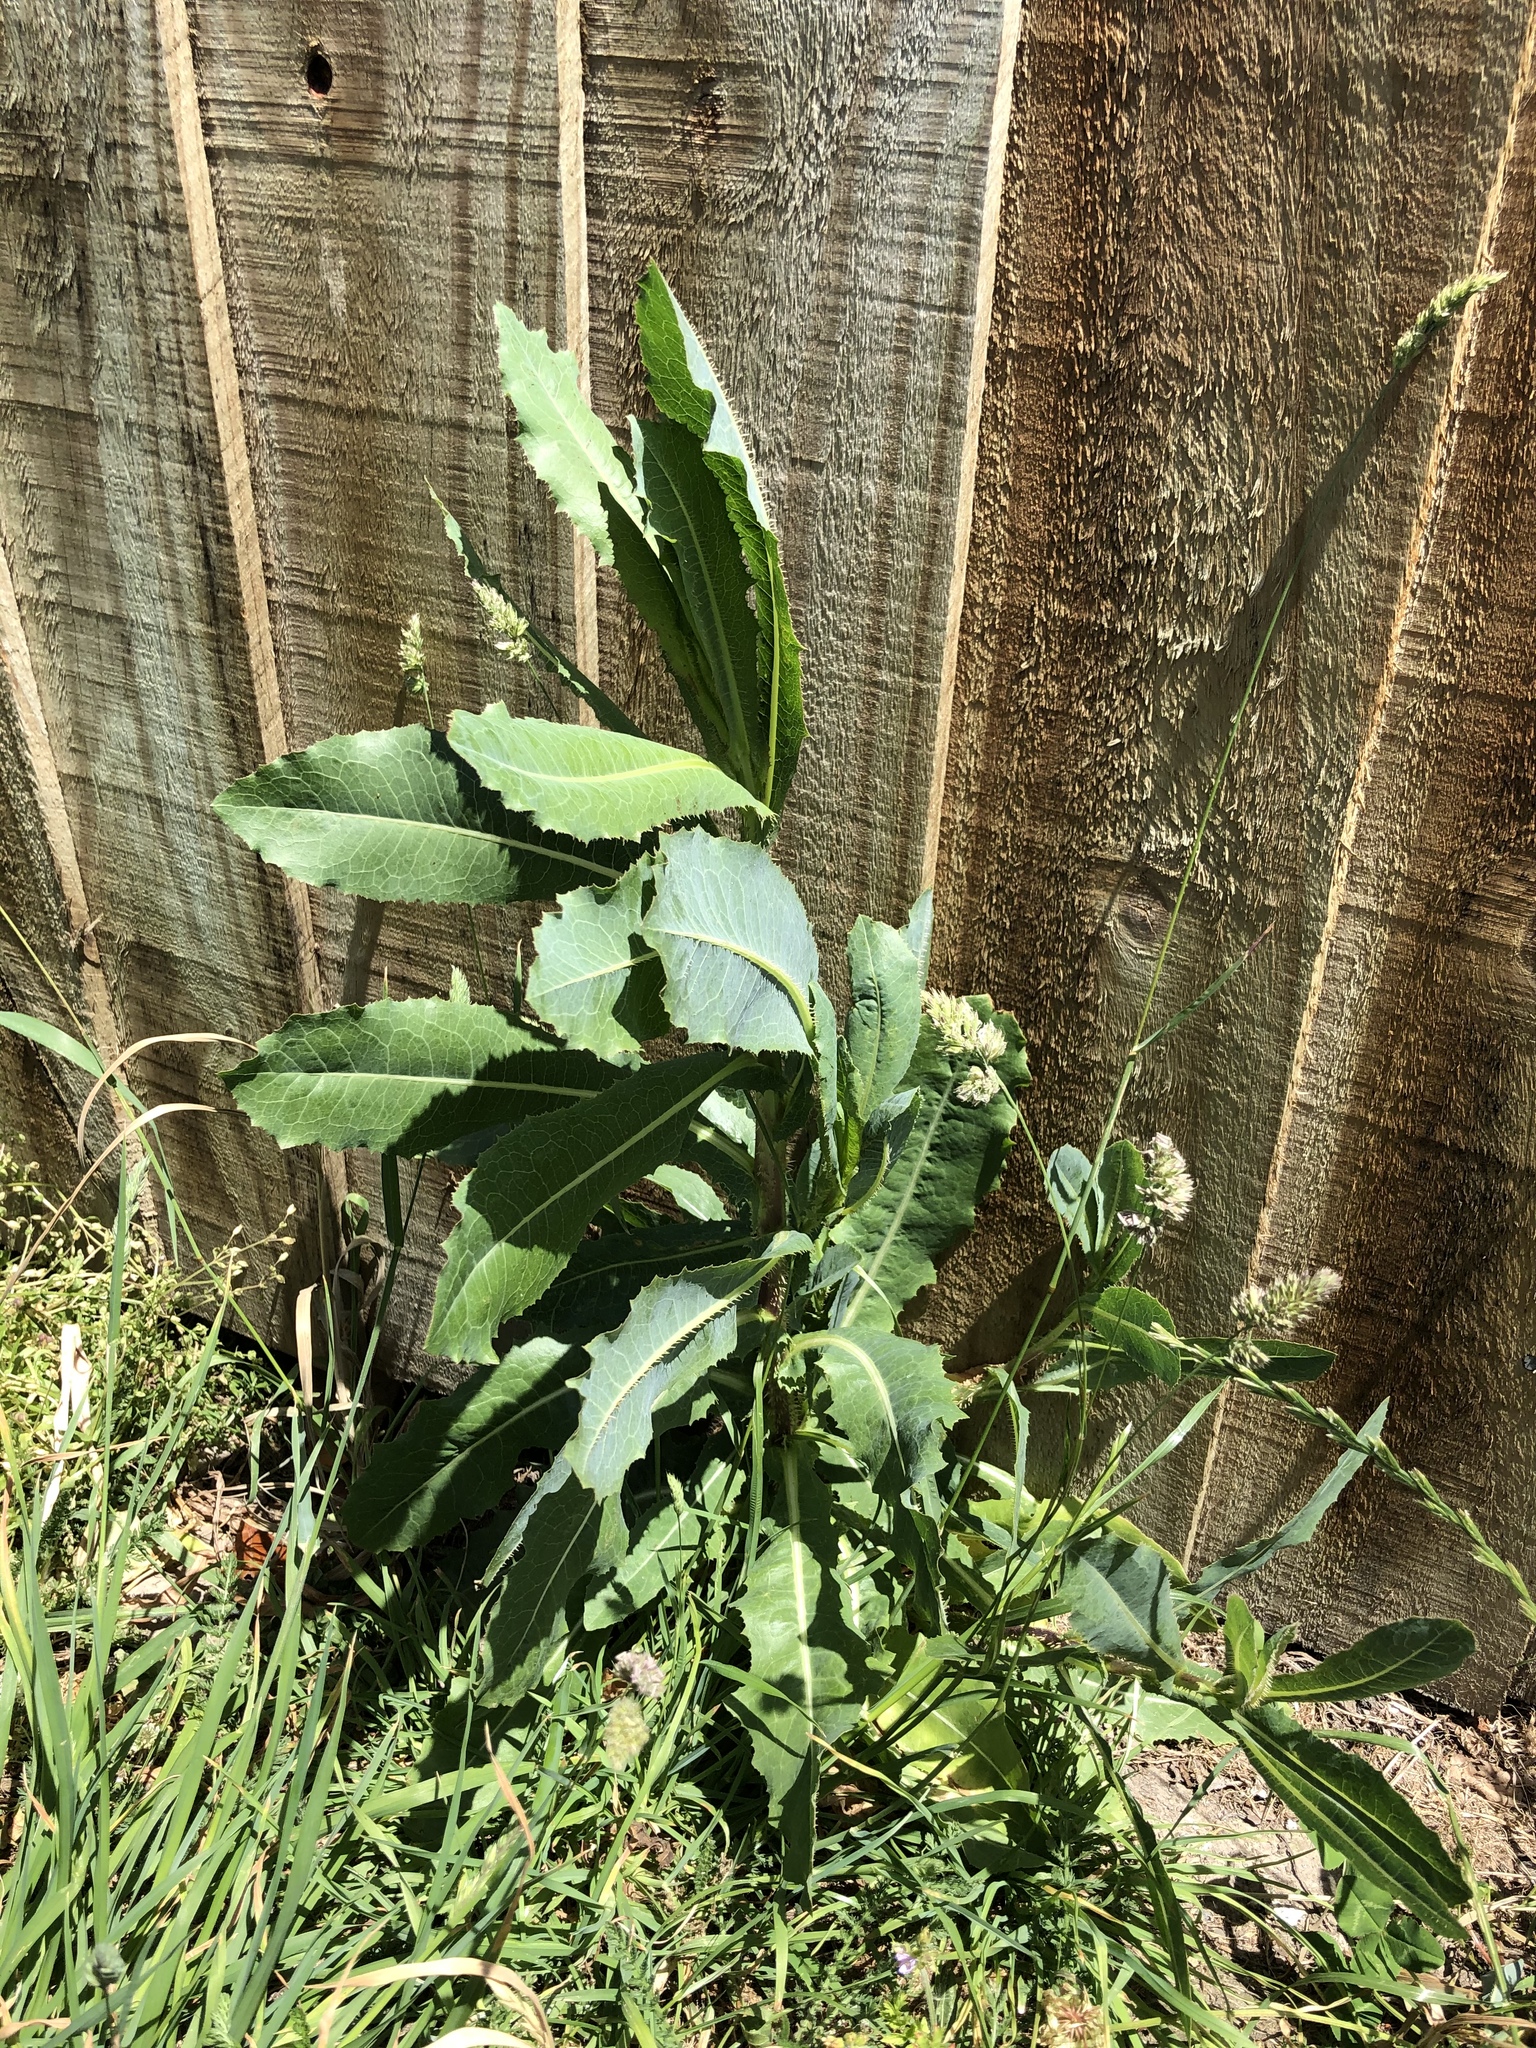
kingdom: Plantae
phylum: Tracheophyta
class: Magnoliopsida
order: Asterales
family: Asteraceae
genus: Lactuca
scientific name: Lactuca serriola
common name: Prickly lettuce
